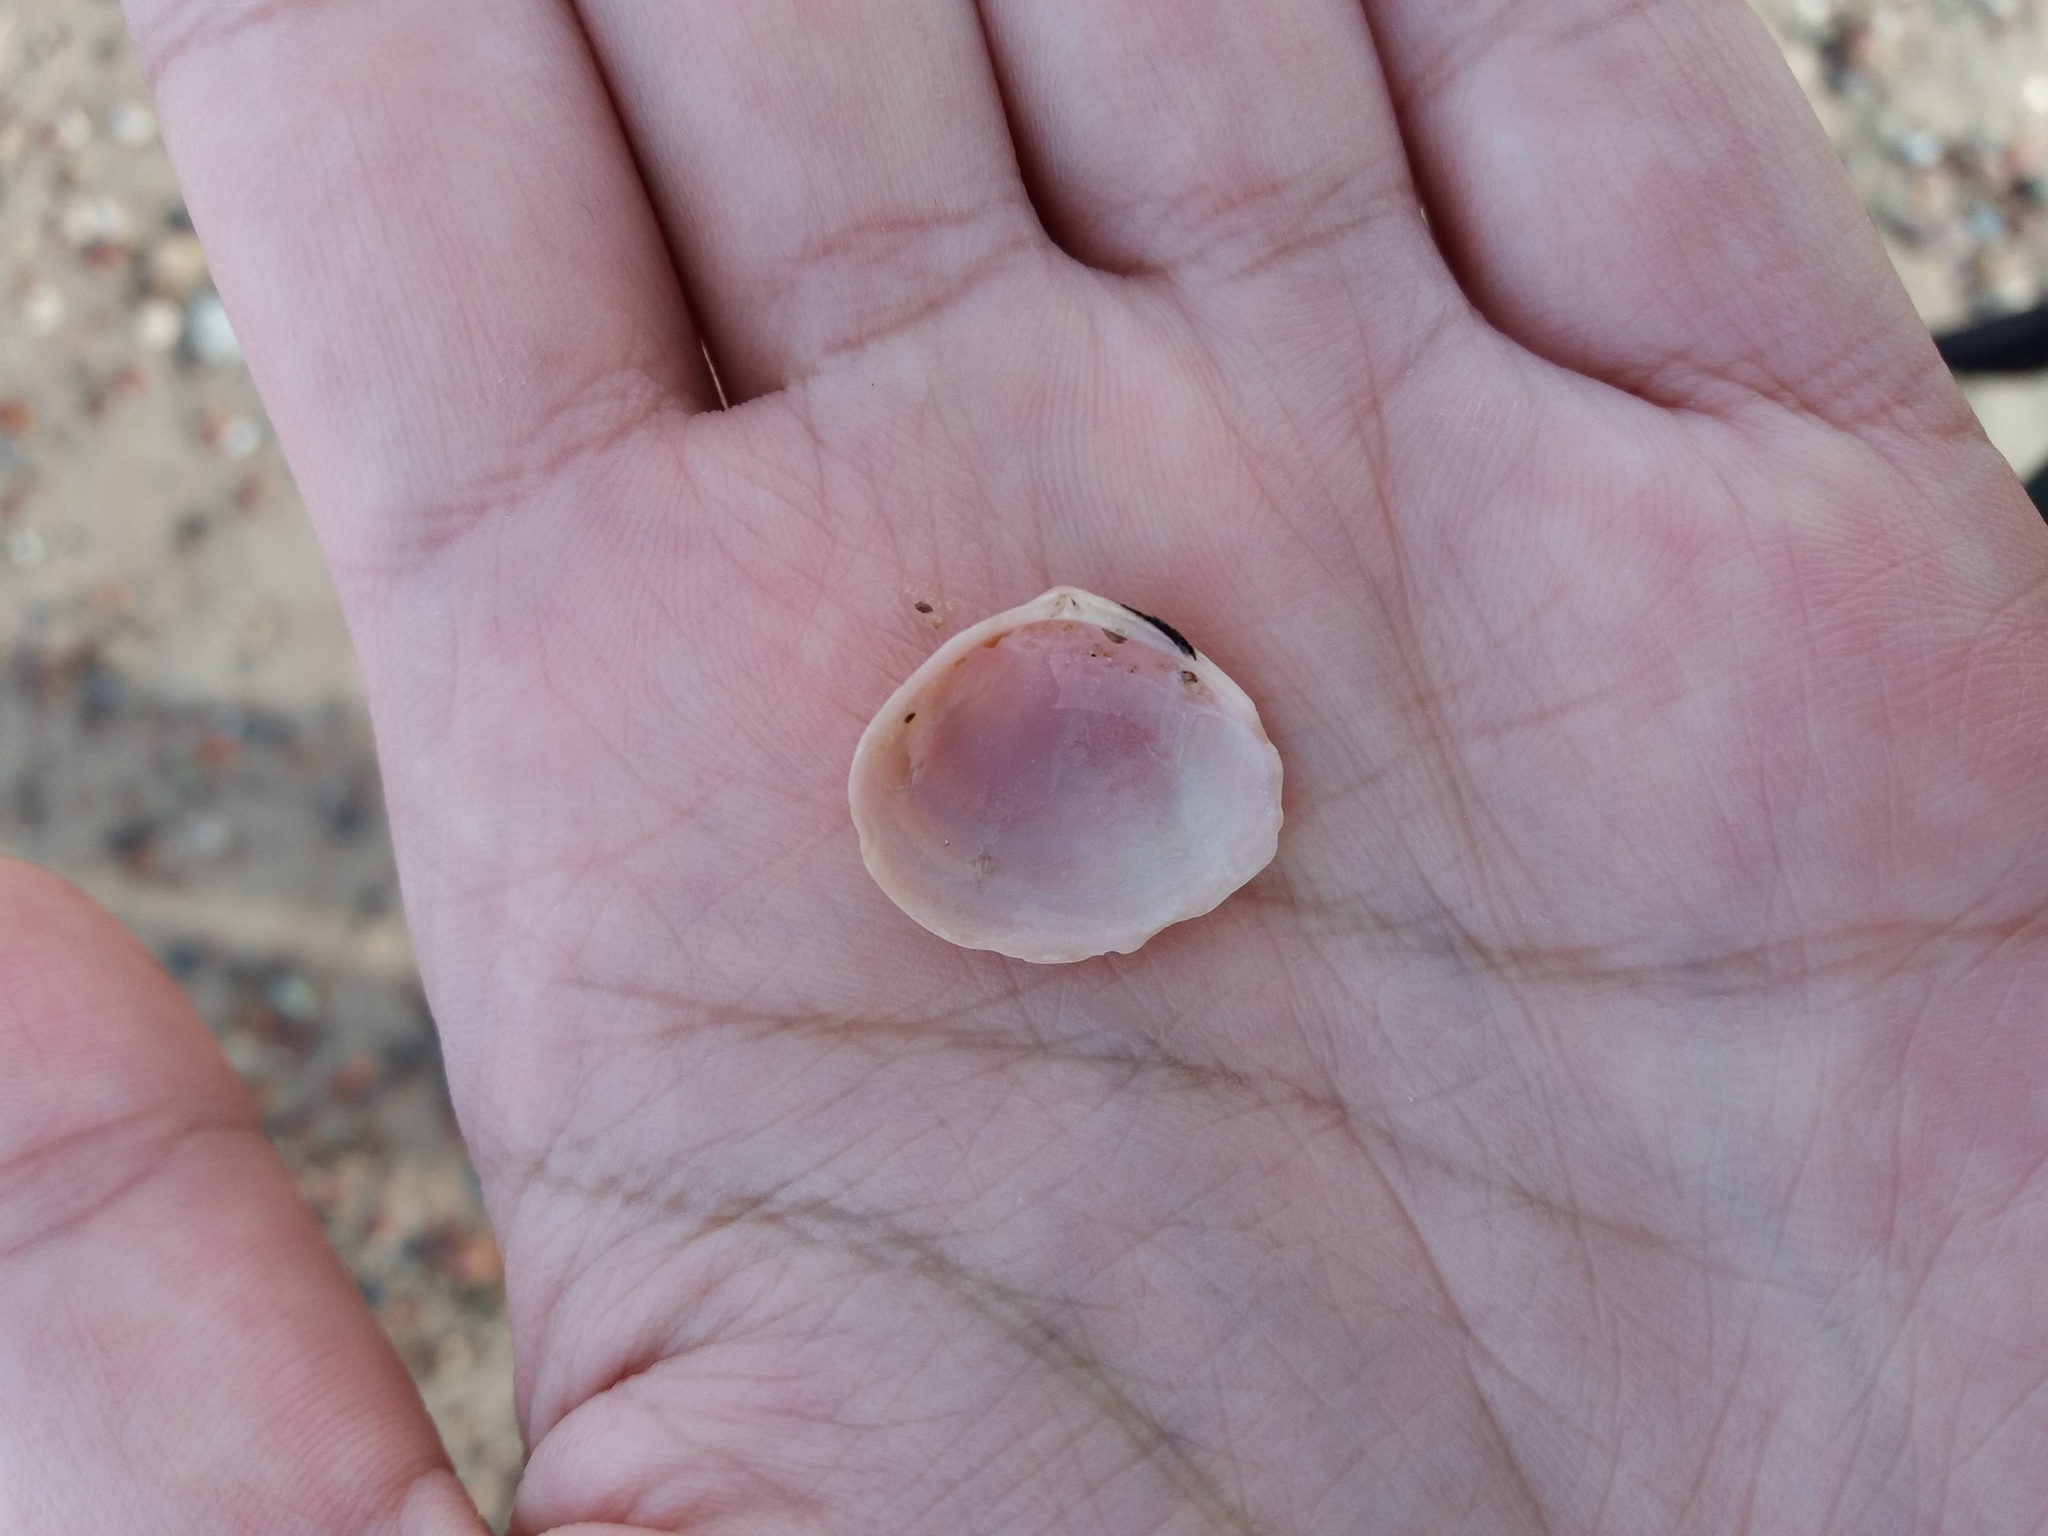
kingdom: Animalia
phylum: Mollusca
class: Bivalvia
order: Cardiida
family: Tellinidae
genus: Macoma
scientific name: Macoma balthica
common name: Baltic tellin
